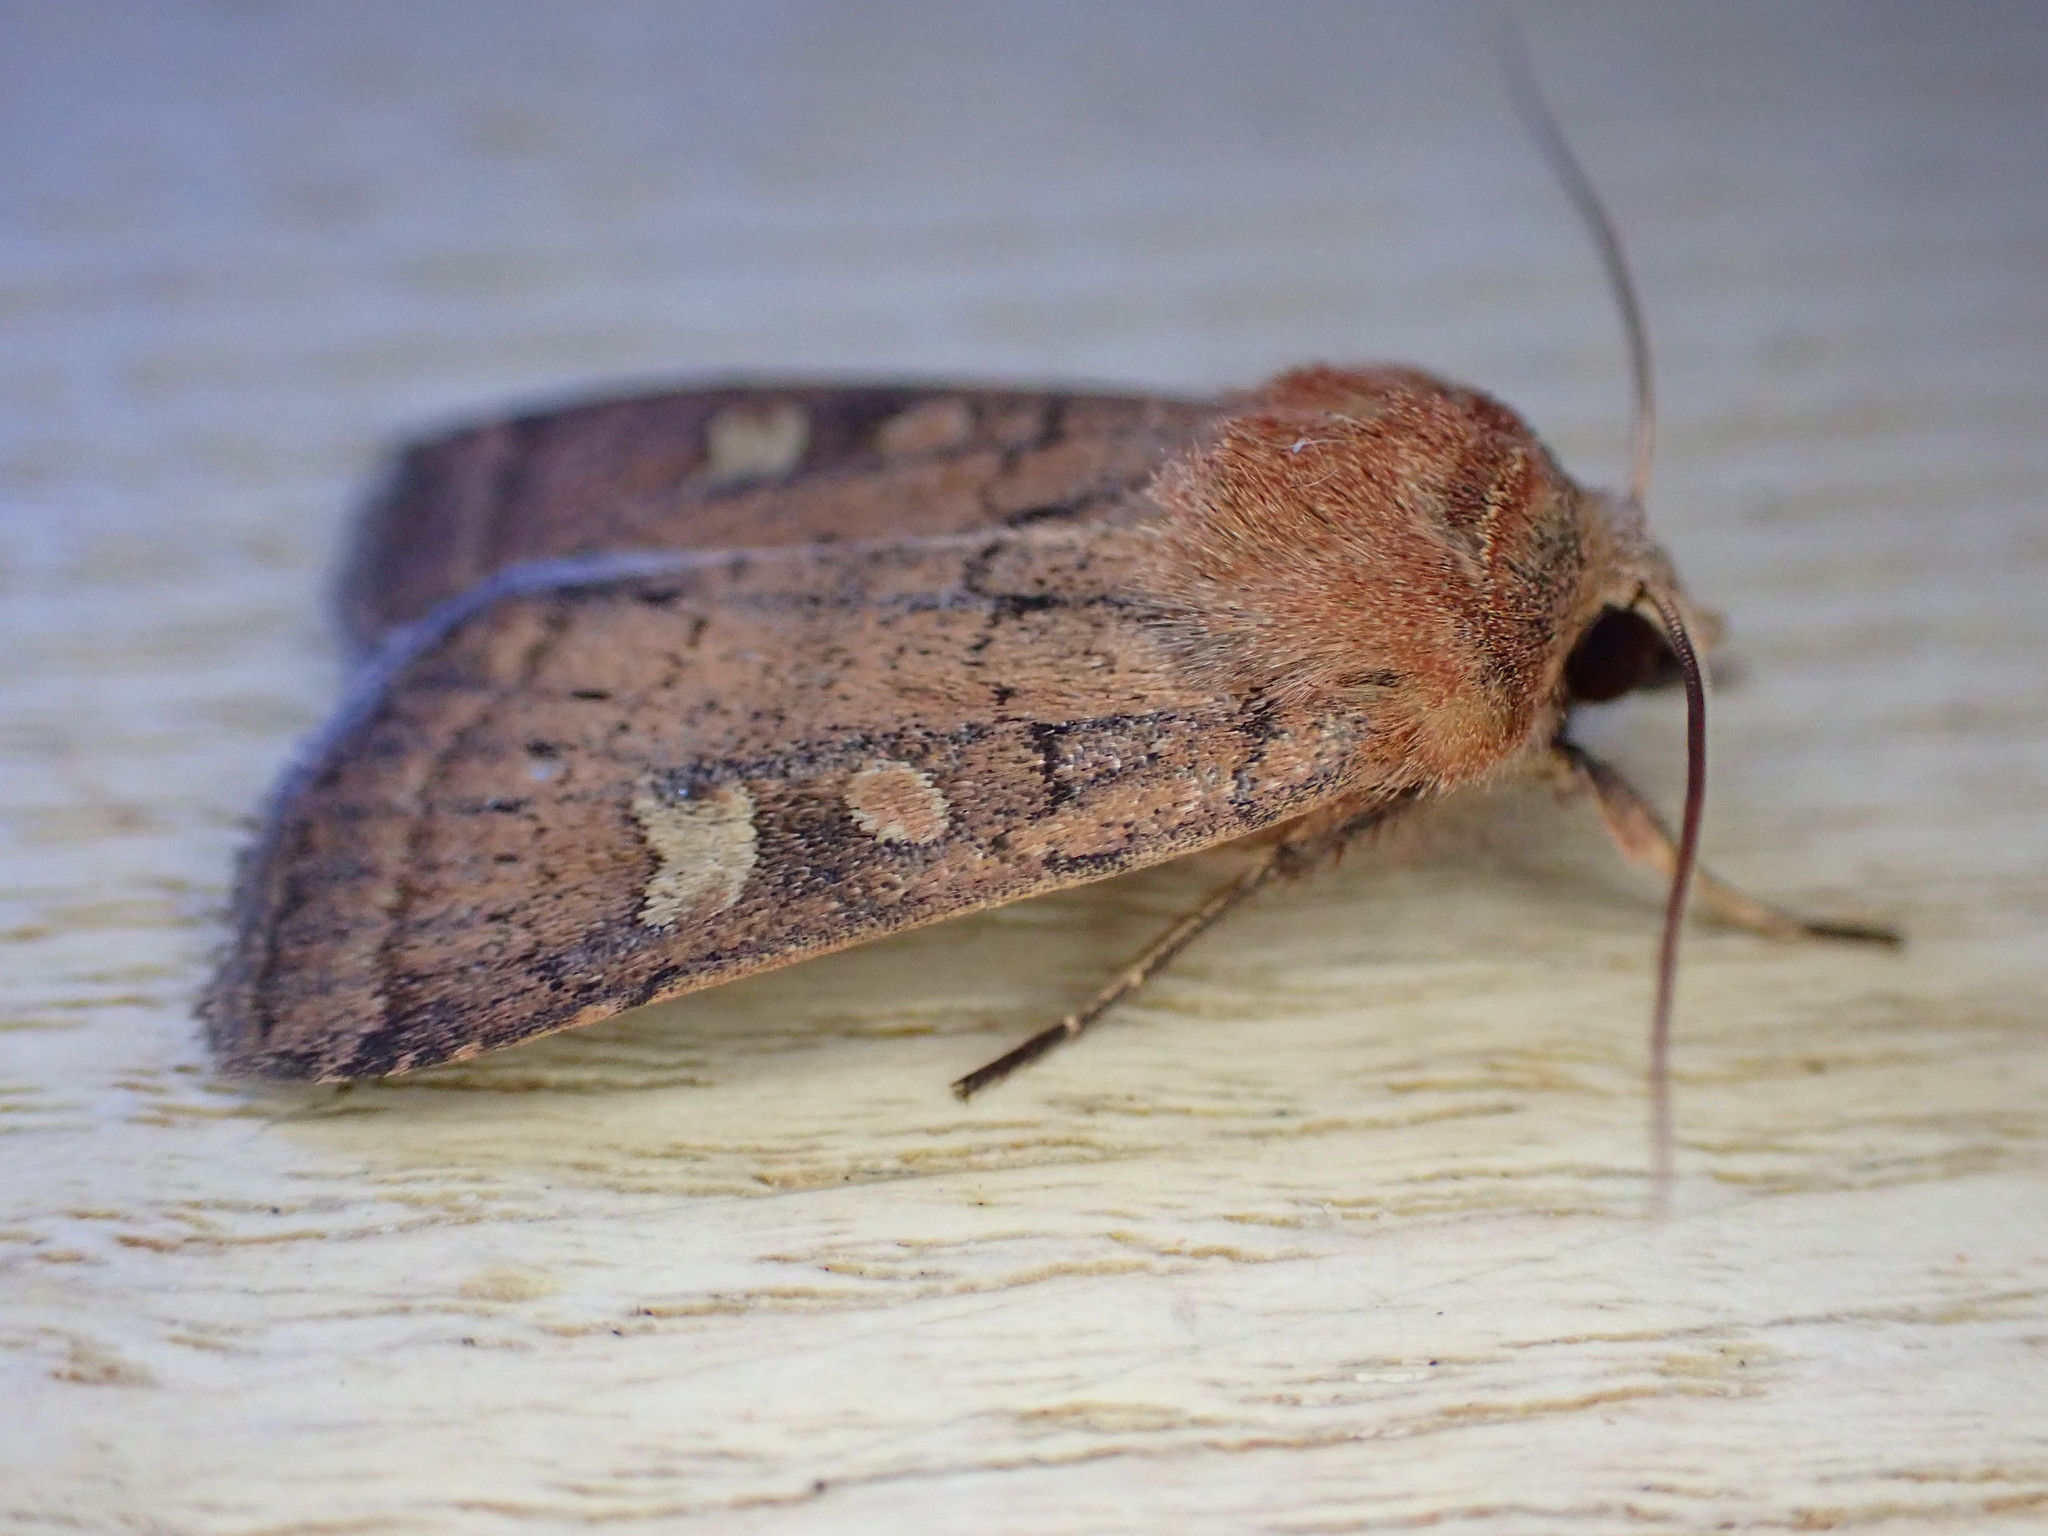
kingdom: Animalia
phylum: Arthropoda
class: Insecta
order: Lepidoptera
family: Noctuidae
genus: Xestia
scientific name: Xestia xanthographa
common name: Square-spot rustic
